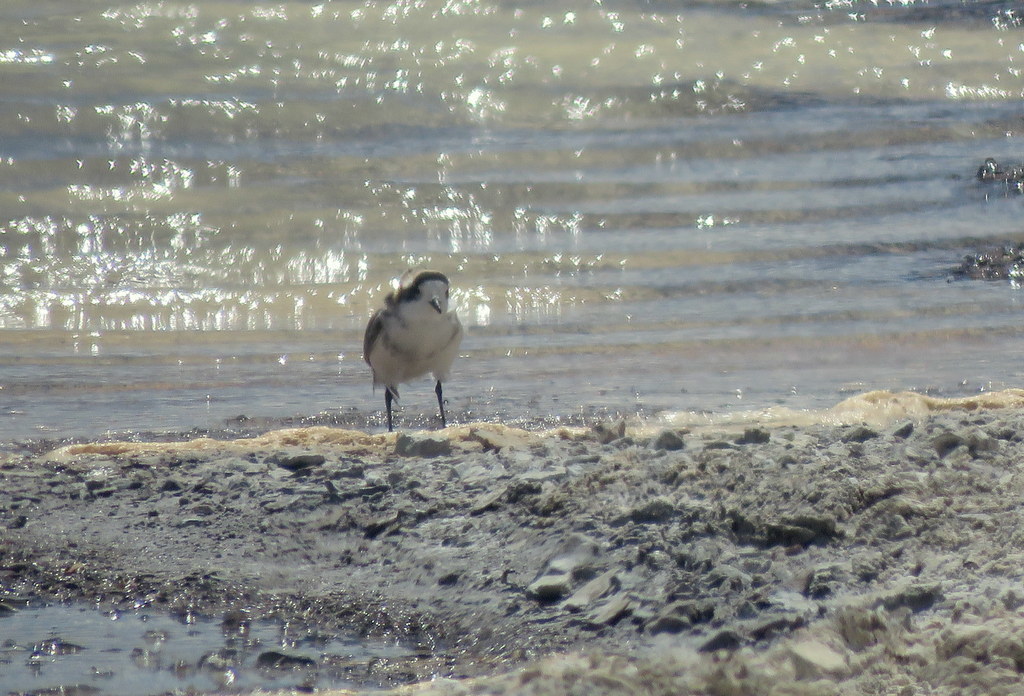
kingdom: Animalia
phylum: Chordata
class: Aves
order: Charadriiformes
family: Charadriidae
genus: Anarhynchus
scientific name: Anarhynchus
